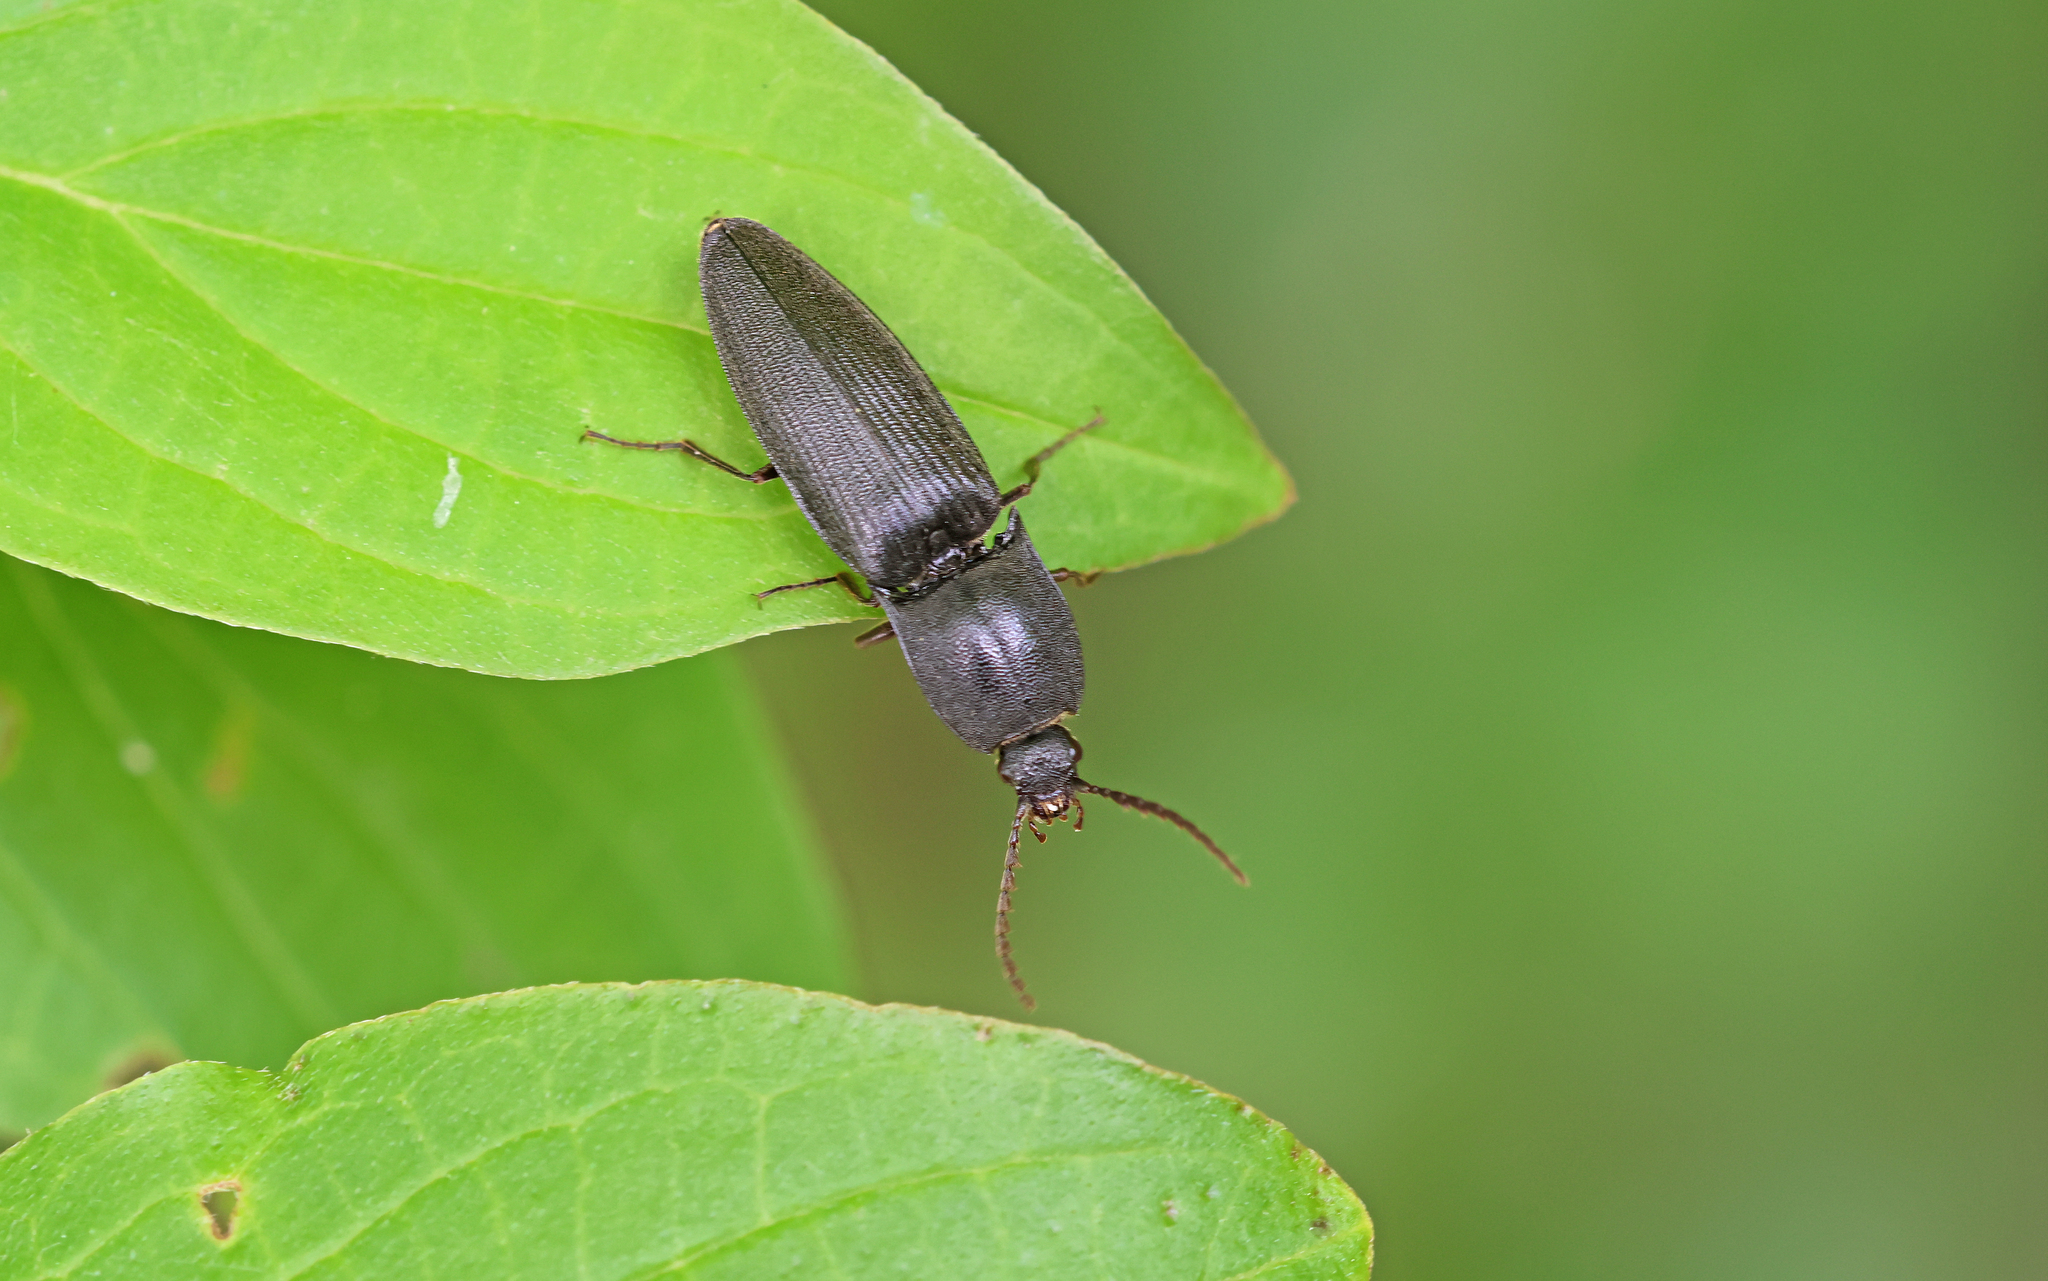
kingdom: Animalia
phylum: Arthropoda
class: Insecta
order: Coleoptera
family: Elateridae
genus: Neopristilophus
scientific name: Neopristilophus insitivus
